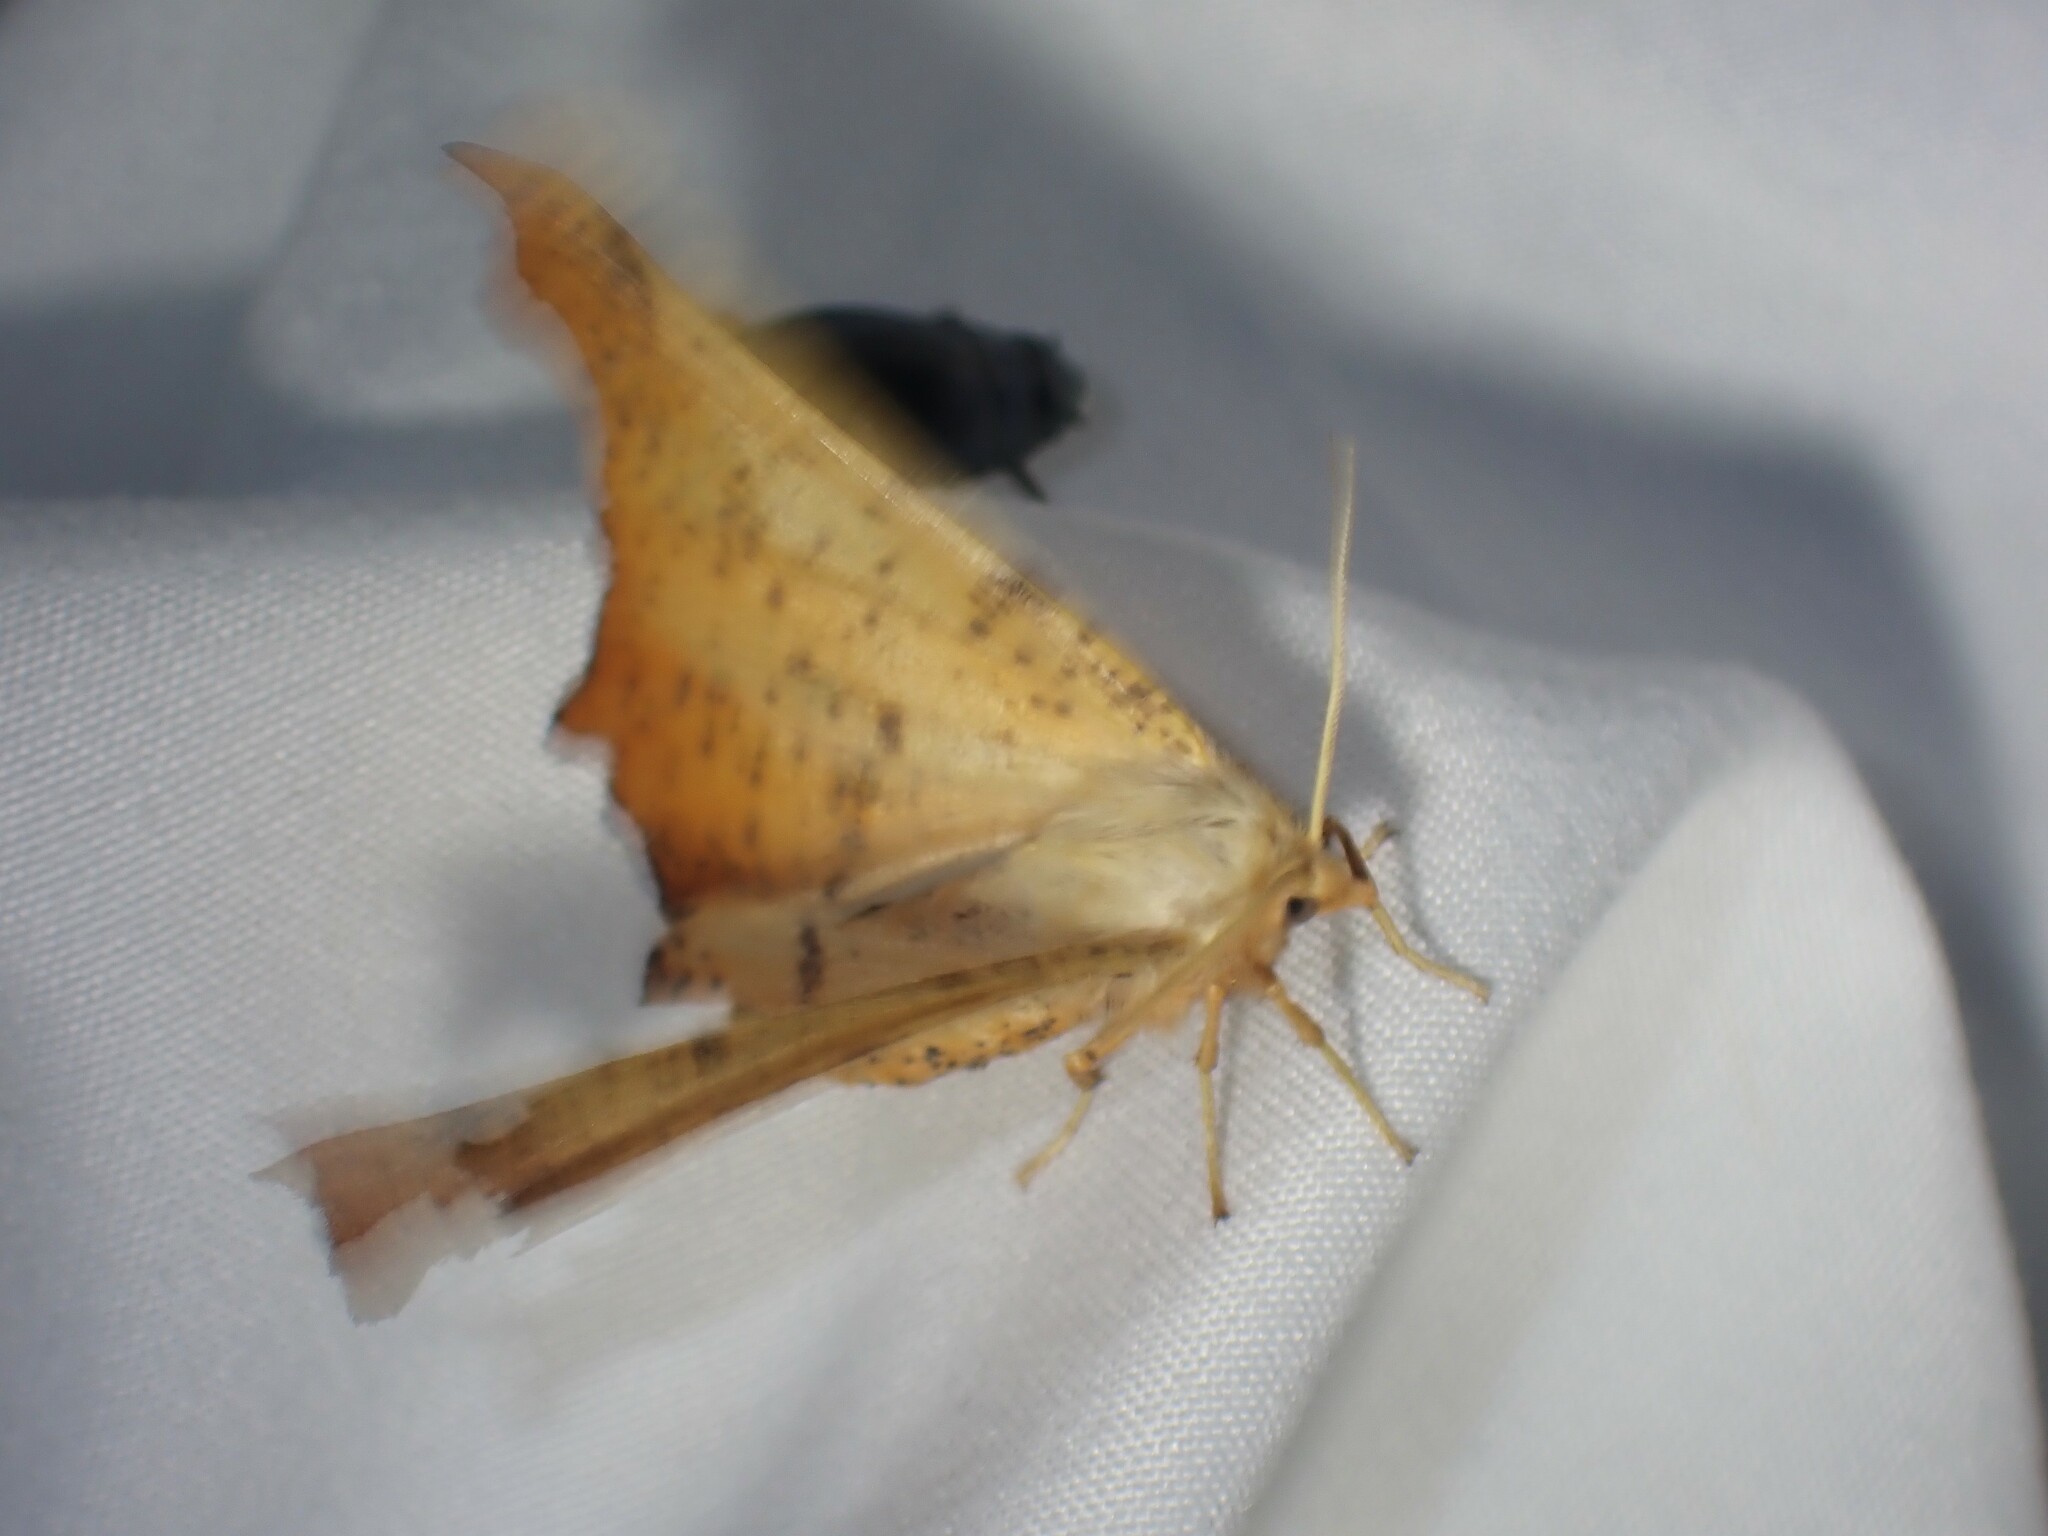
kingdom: Animalia
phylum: Arthropoda
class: Insecta
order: Lepidoptera
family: Geometridae
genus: Ennomos
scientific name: Ennomos magnaria
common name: Maple spanworm
